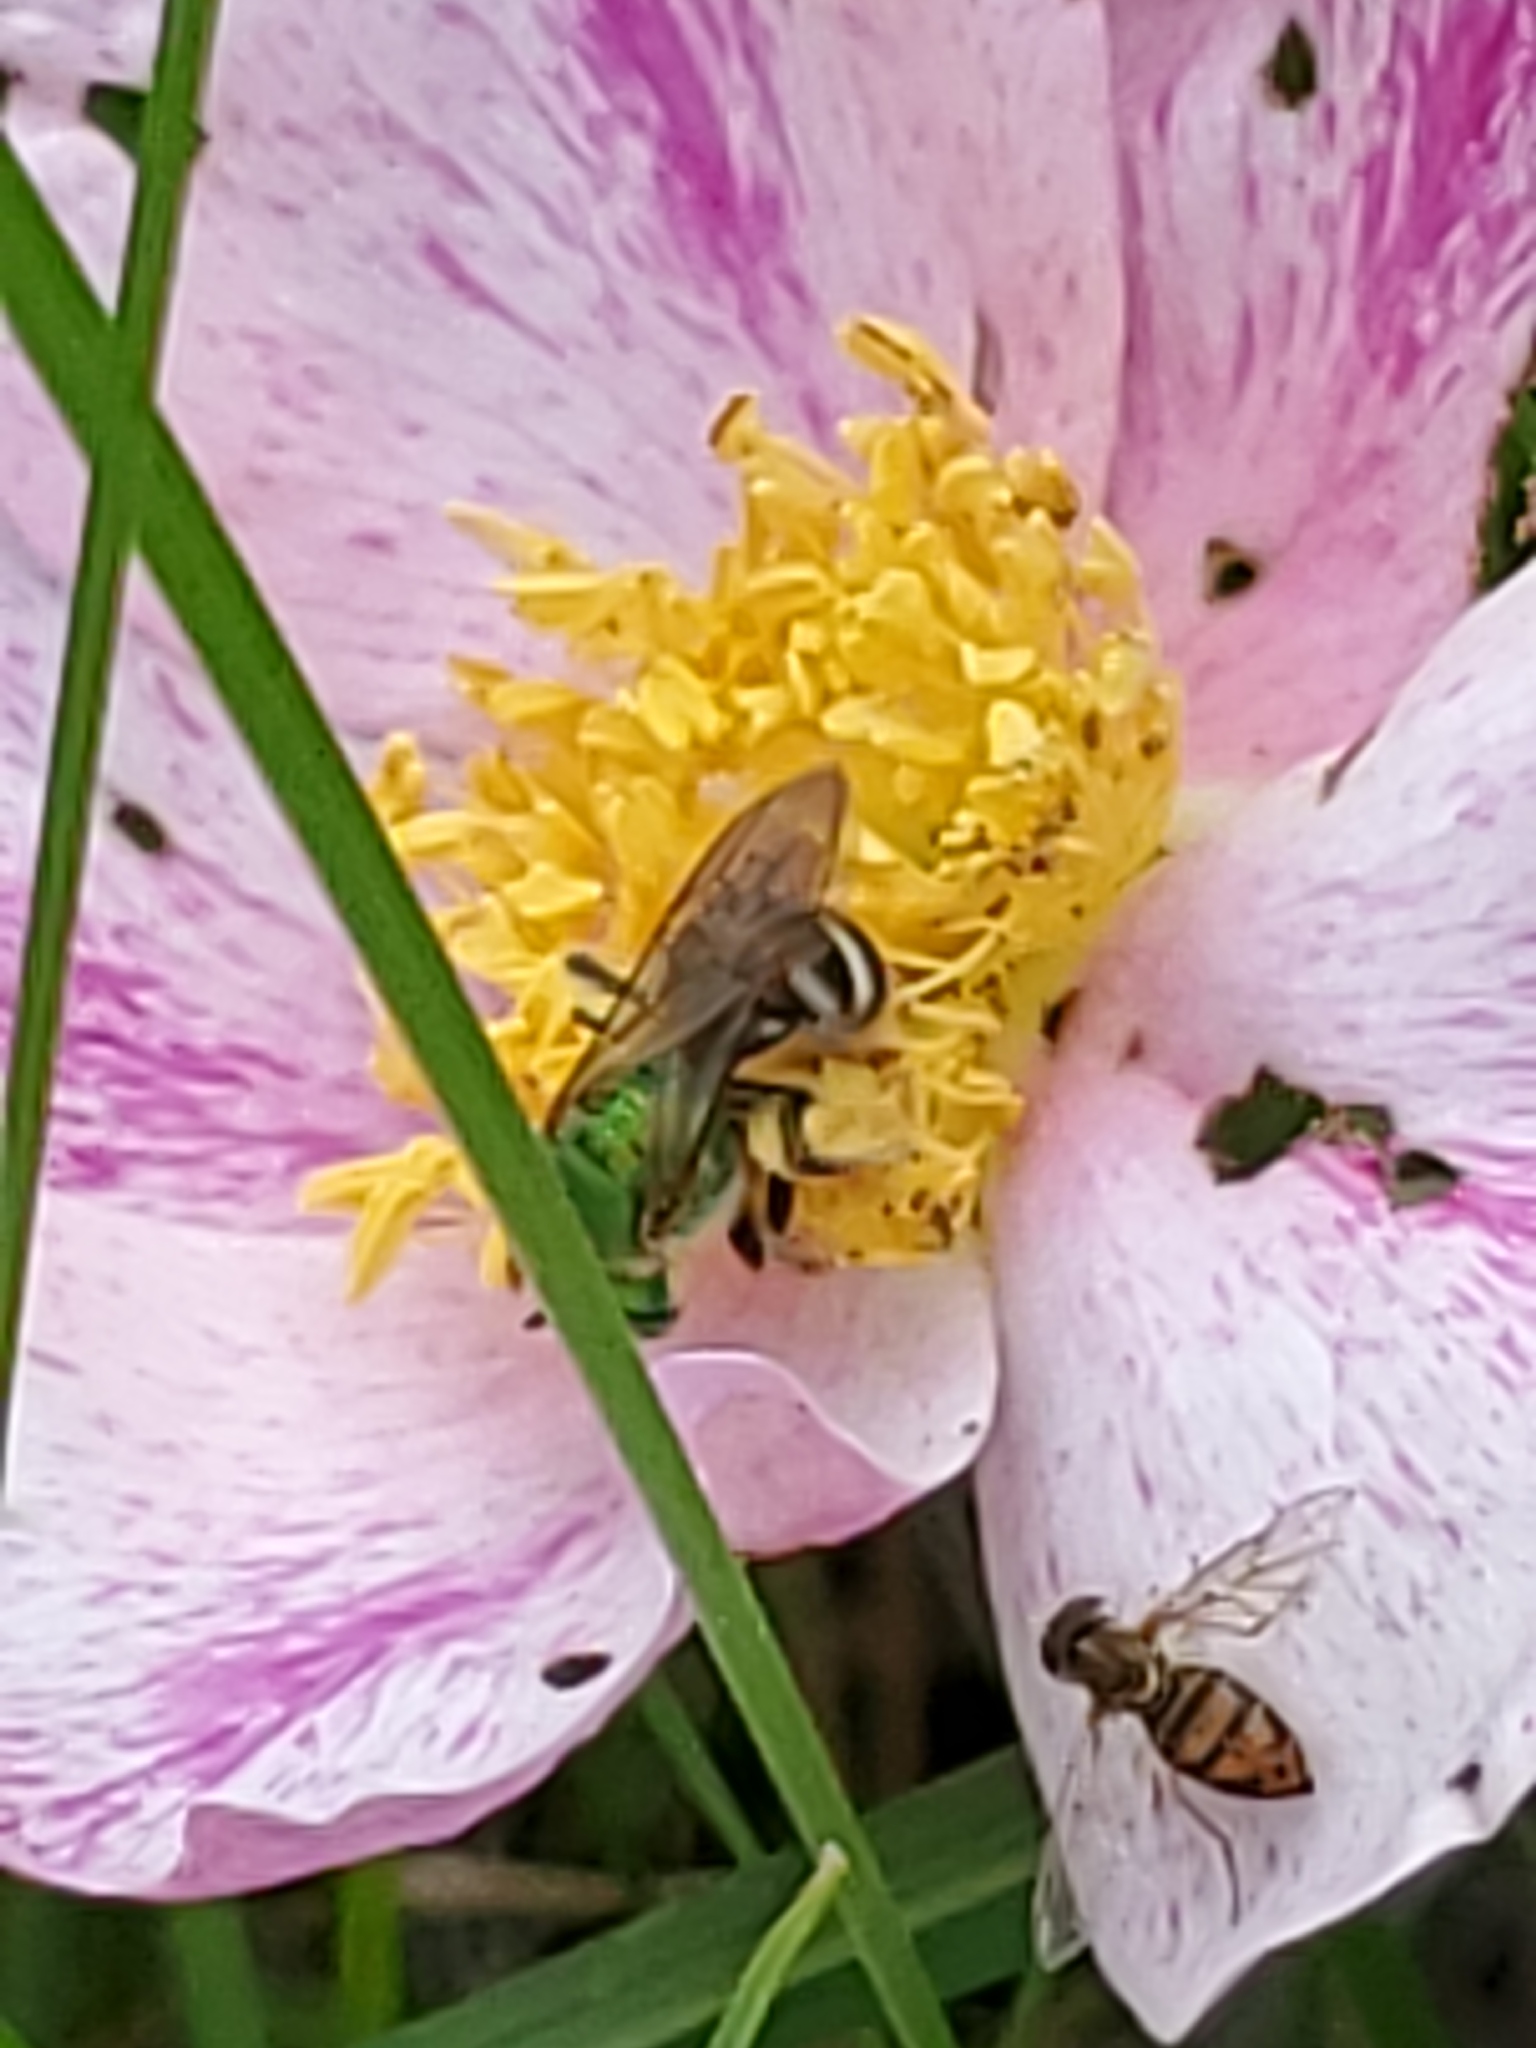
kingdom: Animalia
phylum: Arthropoda
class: Insecta
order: Diptera
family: Syrphidae
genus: Toxomerus
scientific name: Toxomerus marginatus
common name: Syrphid fly
